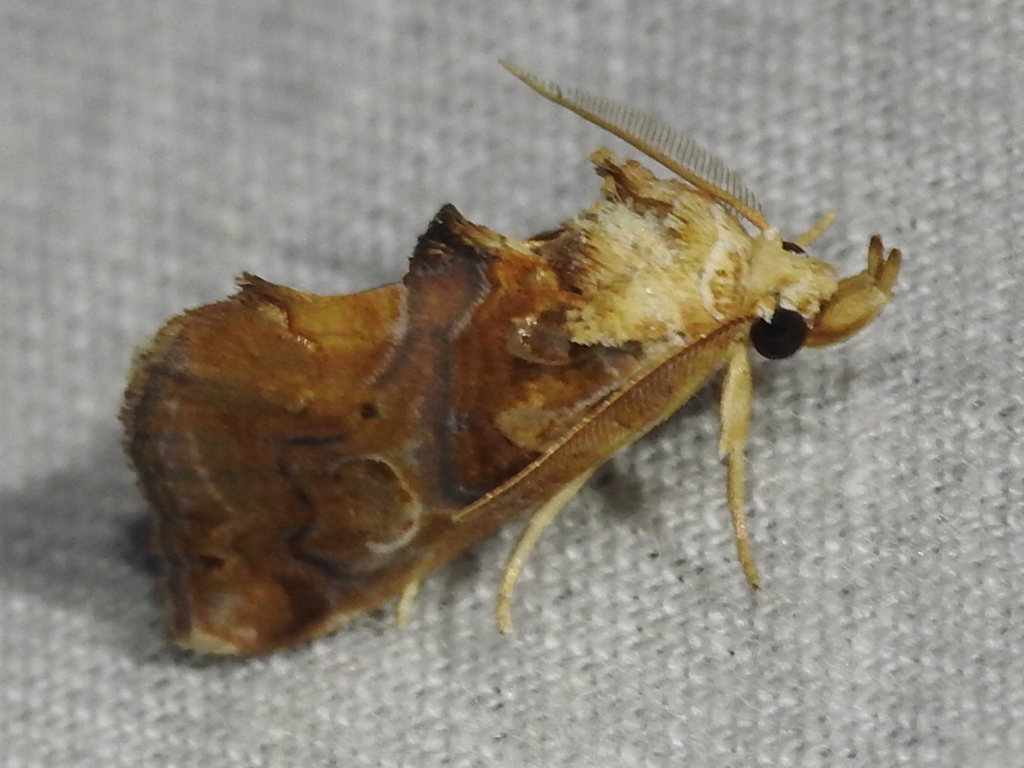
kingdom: Animalia
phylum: Arthropoda
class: Insecta
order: Lepidoptera
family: Erebidae
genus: Plusiodonta
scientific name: Plusiodonta compressipalpis
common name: Moonseed moth
